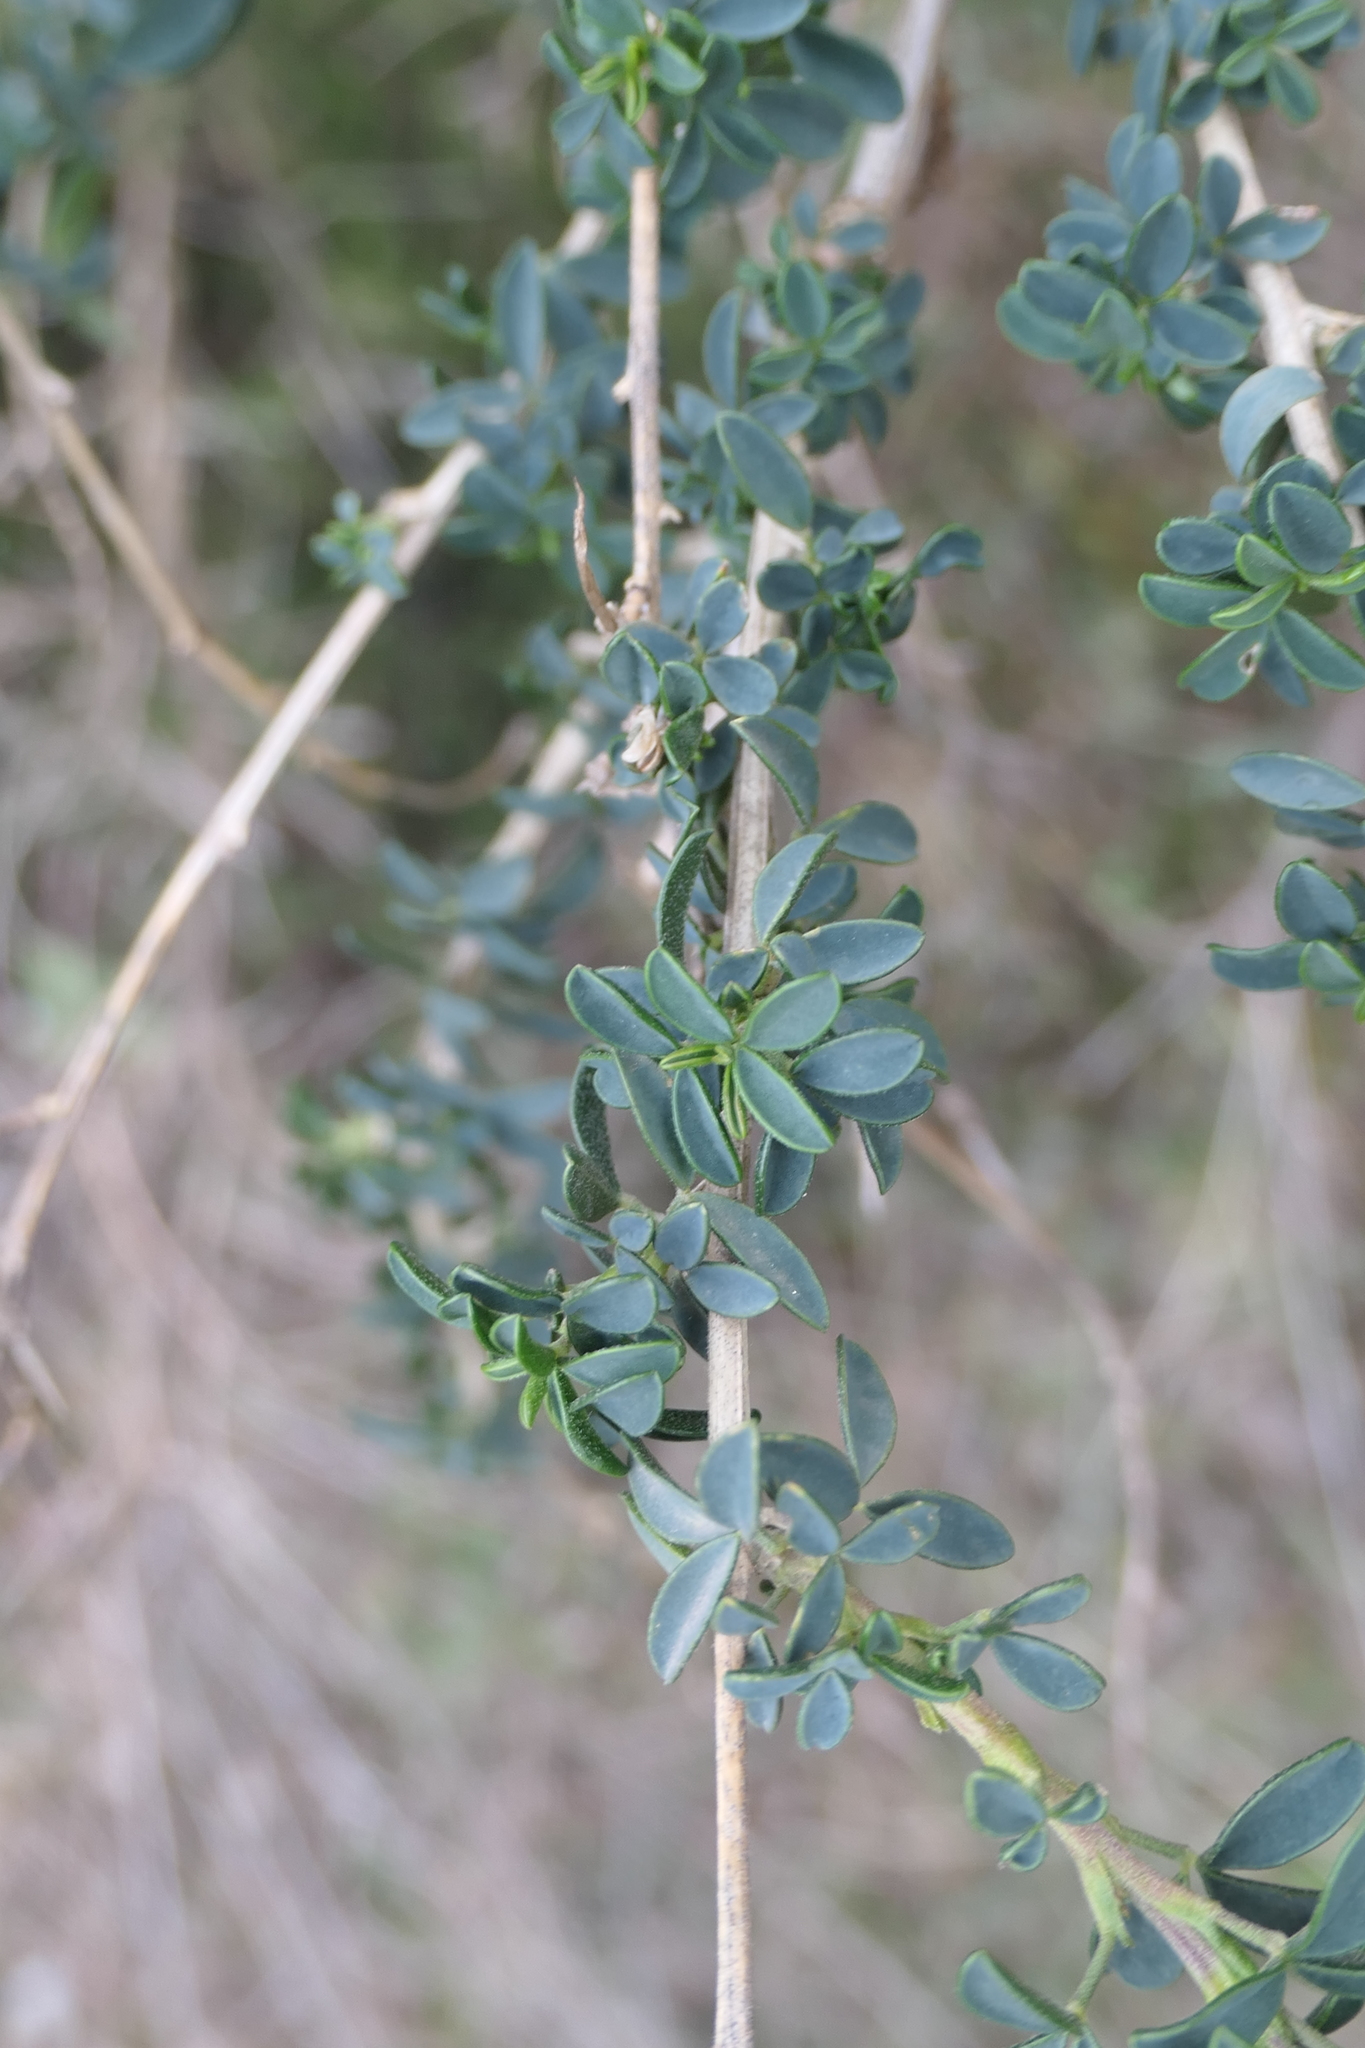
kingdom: Plantae
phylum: Tracheophyta
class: Magnoliopsida
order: Fabales
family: Fabaceae
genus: Adenocarpus
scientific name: Adenocarpus complicatus
